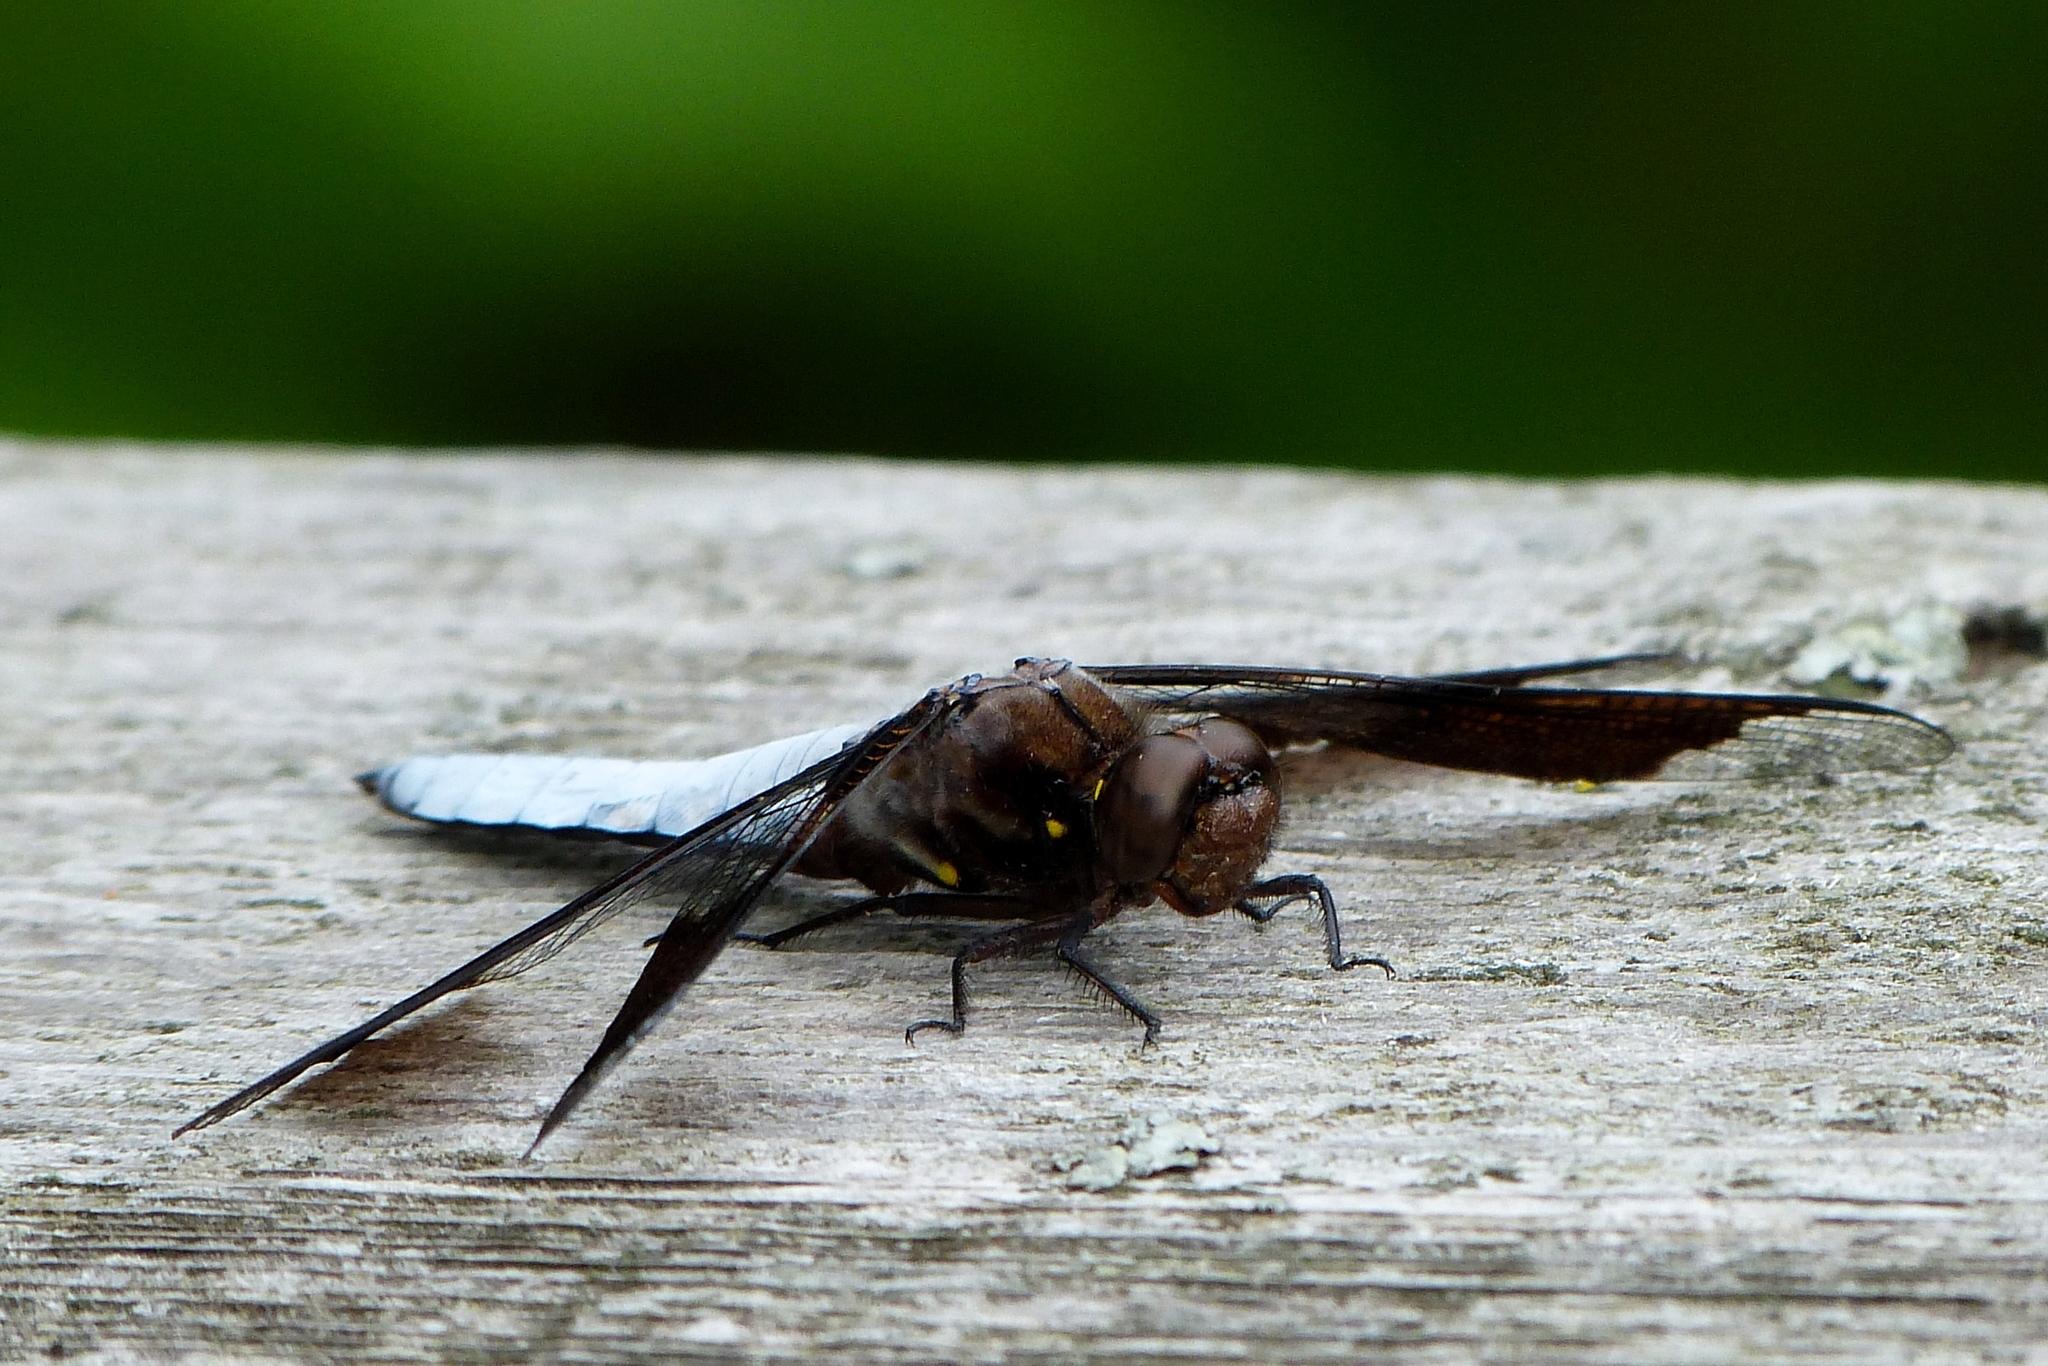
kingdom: Animalia
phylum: Arthropoda
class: Insecta
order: Odonata
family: Libellulidae
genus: Plathemis
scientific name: Plathemis lydia
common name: Common whitetail
